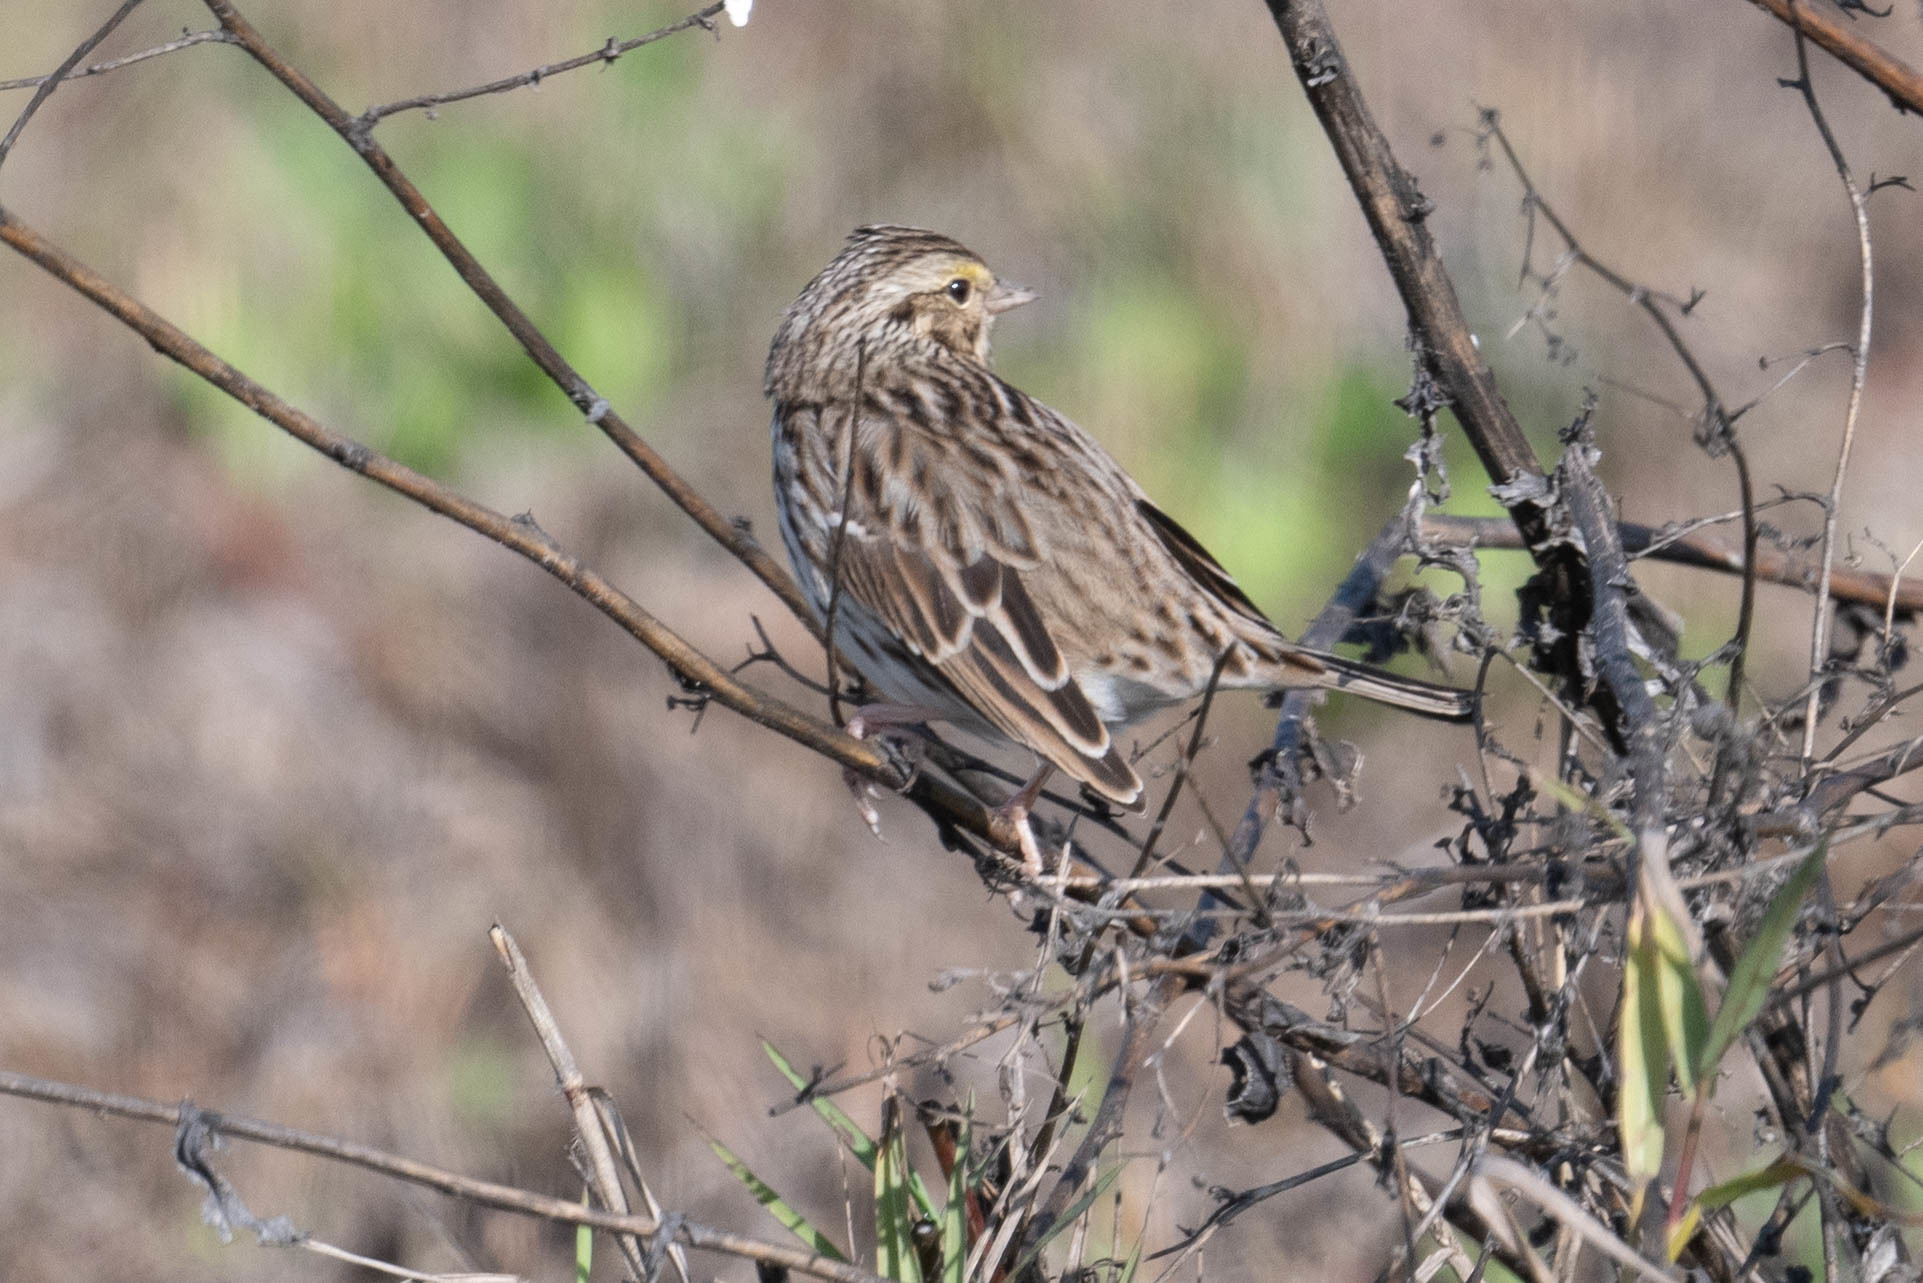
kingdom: Animalia
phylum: Chordata
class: Aves
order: Passeriformes
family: Passerellidae
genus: Passerculus
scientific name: Passerculus sandwichensis
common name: Savannah sparrow
